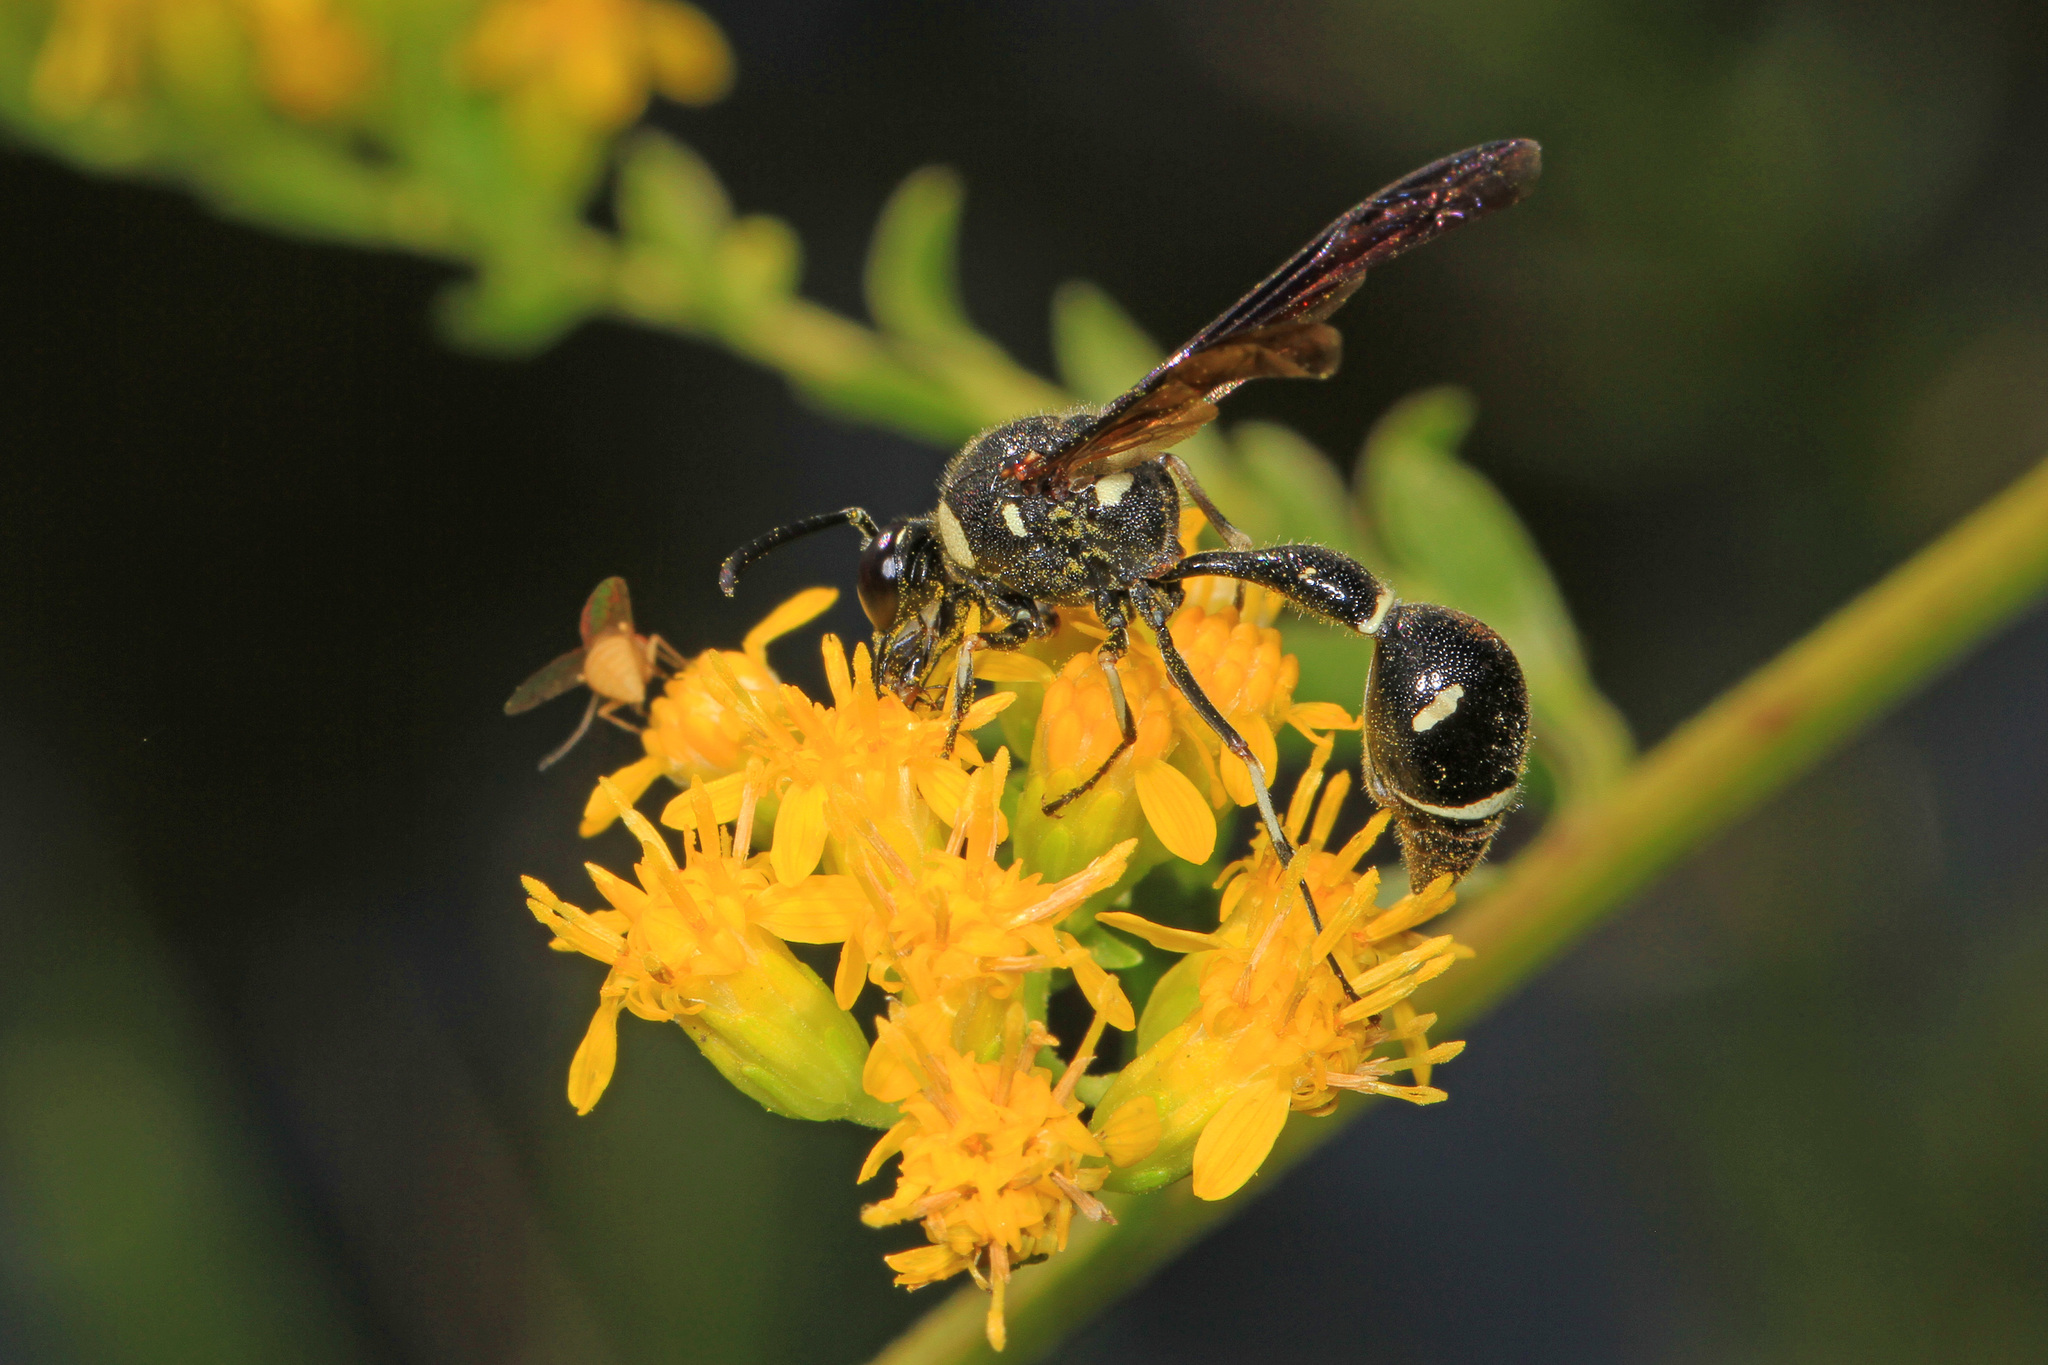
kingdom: Animalia
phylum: Arthropoda
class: Insecta
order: Hymenoptera
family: Vespidae
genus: Eumenes
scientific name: Eumenes fraternus
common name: Fraternal potter wasp
